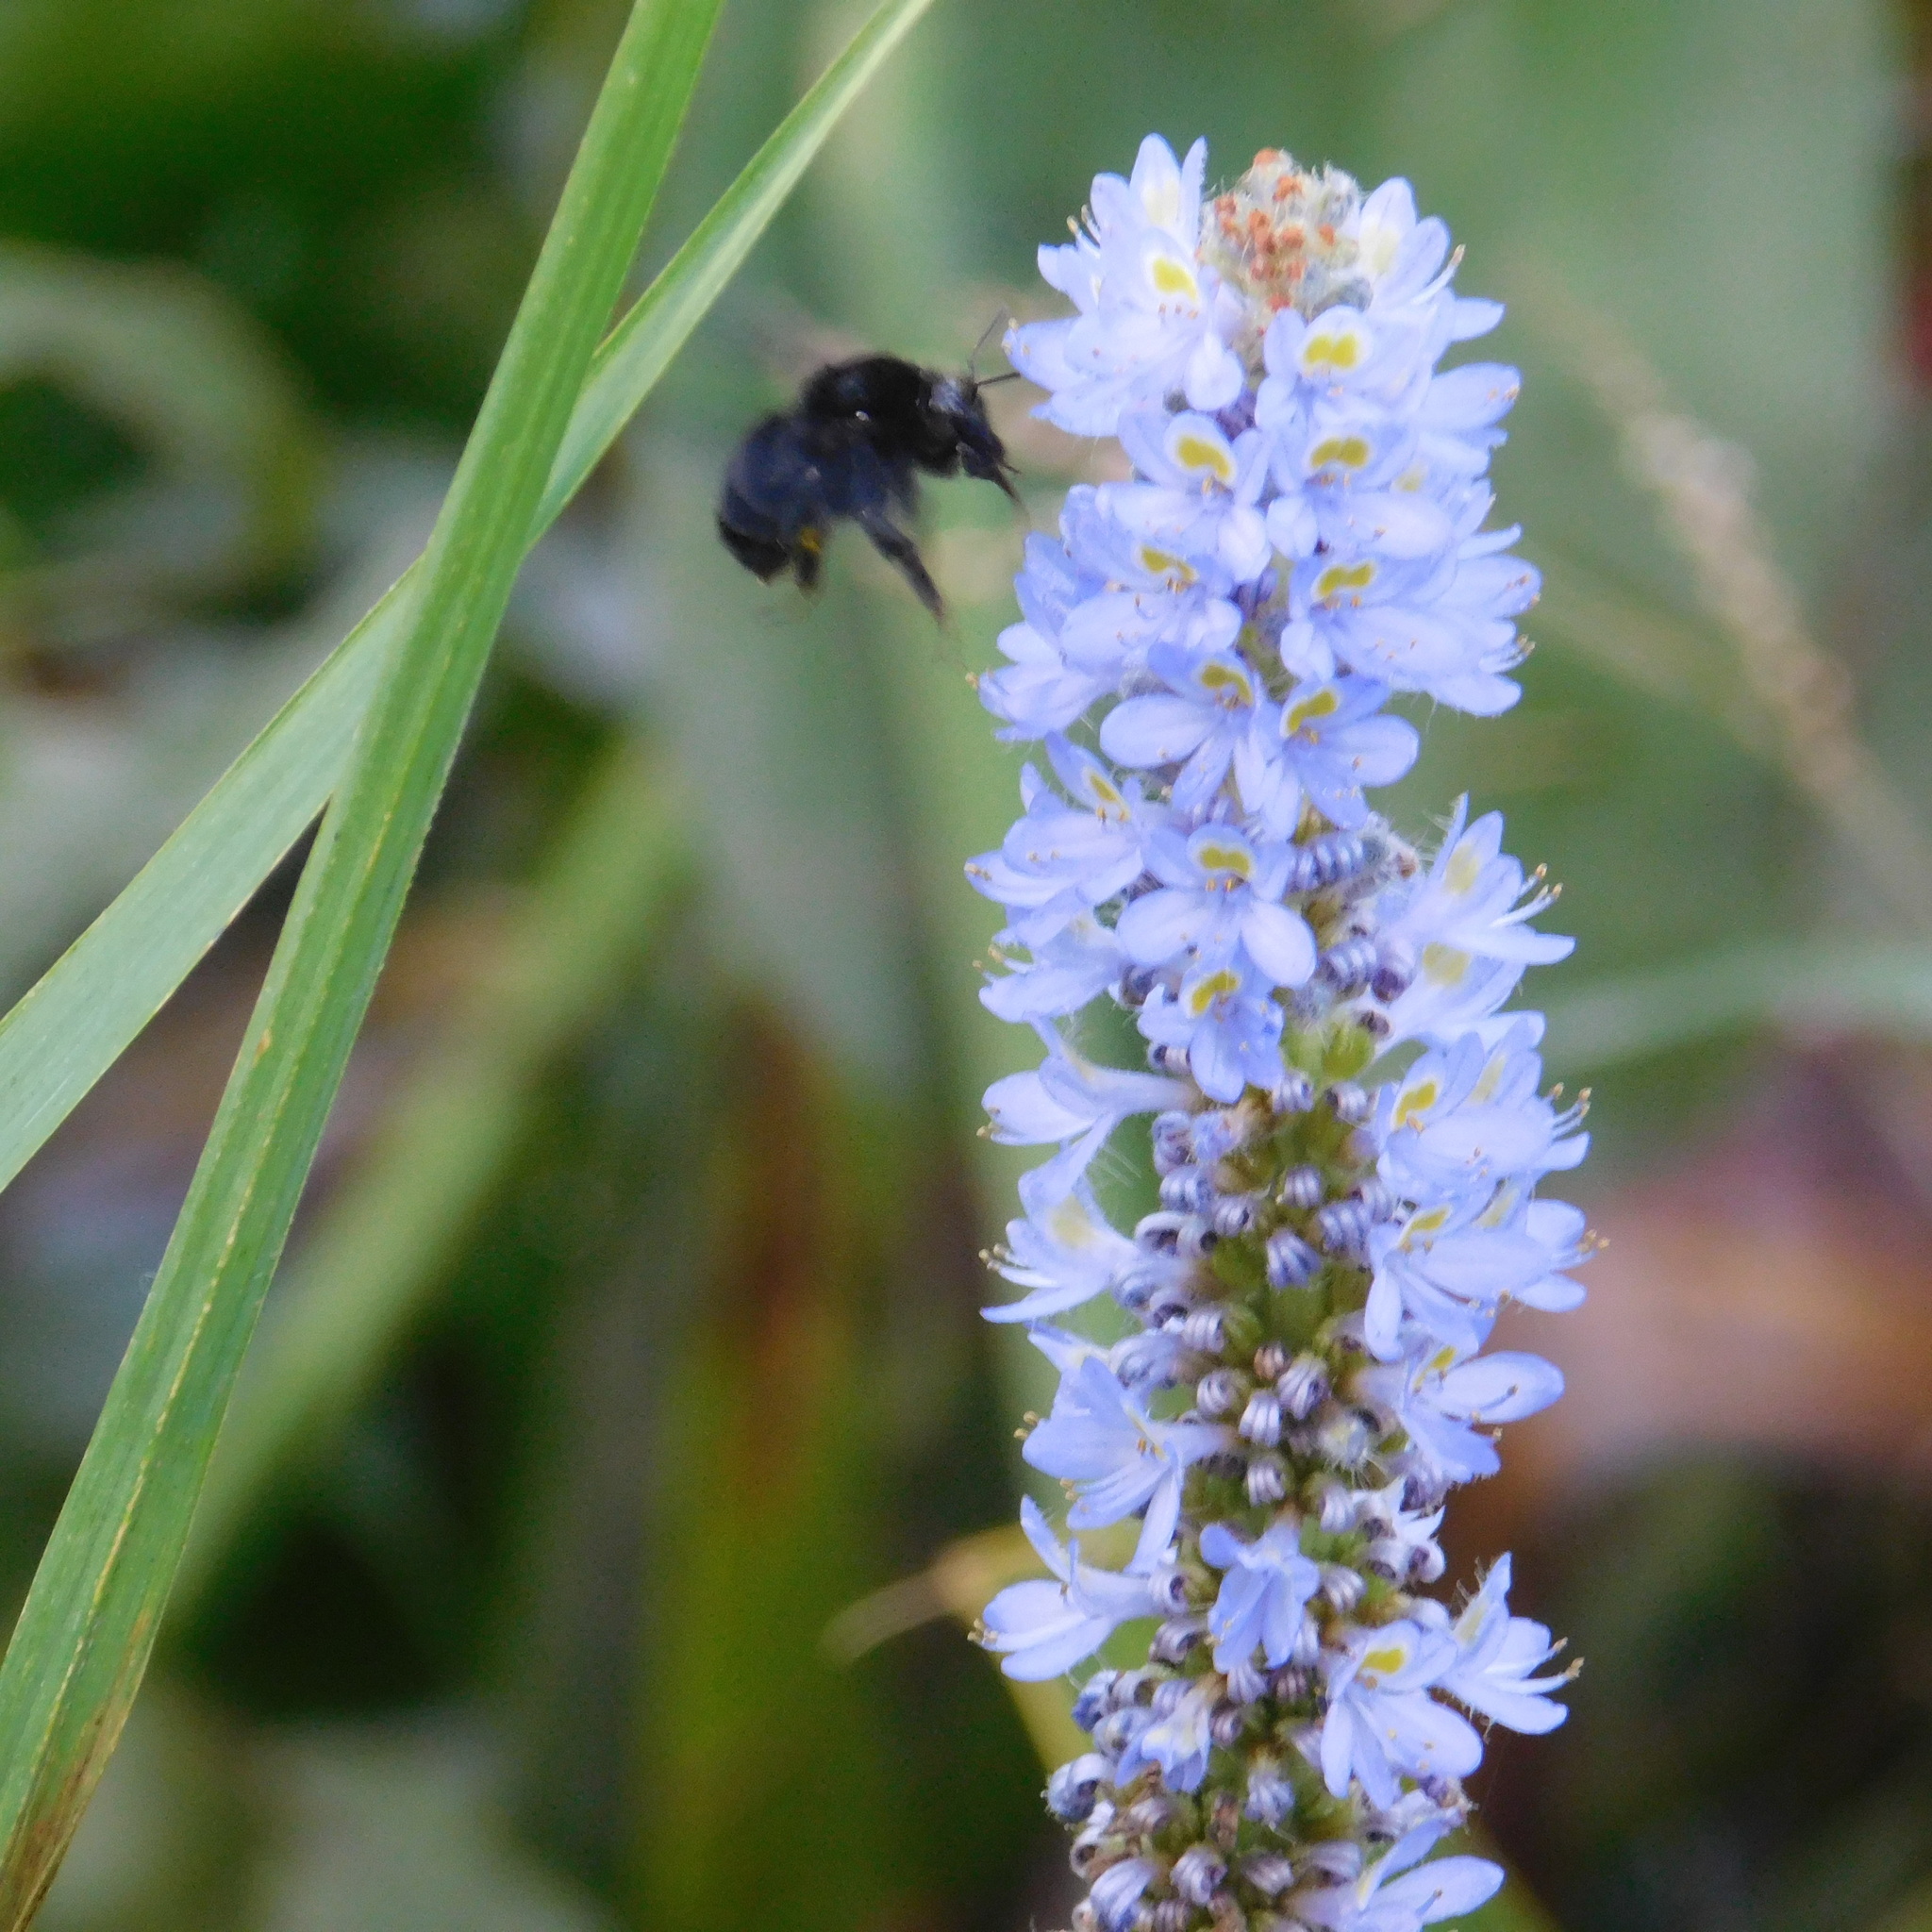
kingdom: Animalia
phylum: Arthropoda
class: Insecta
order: Hymenoptera
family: Apidae
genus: Bombus
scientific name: Bombus pauloensis
